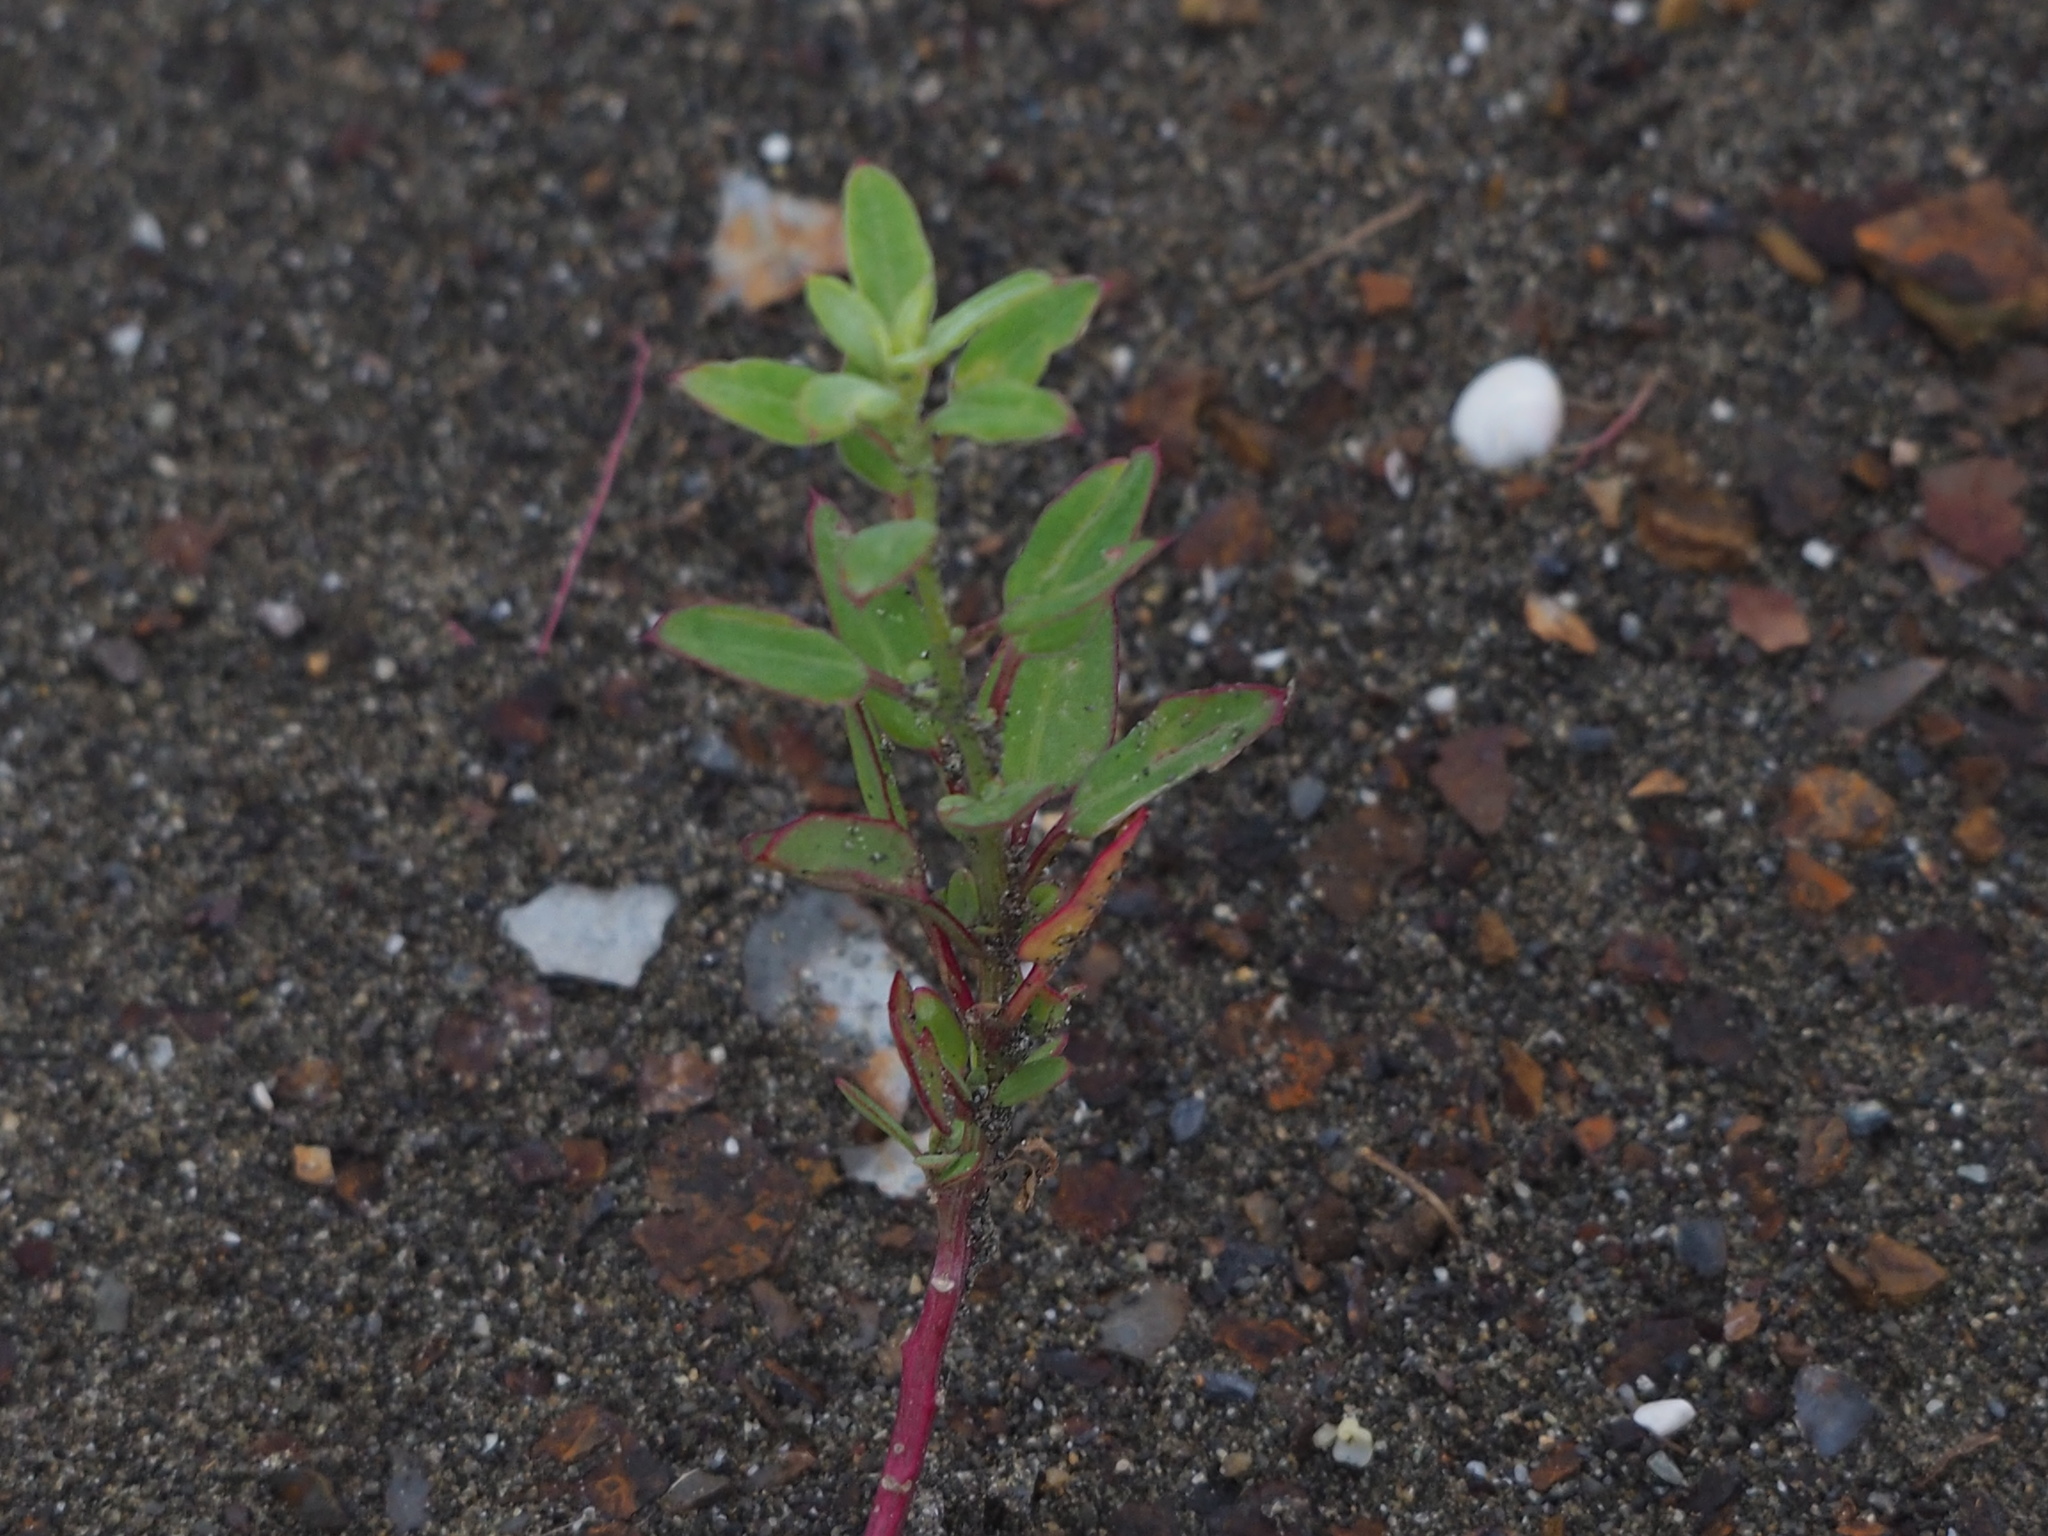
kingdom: Plantae
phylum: Tracheophyta
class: Magnoliopsida
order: Caryophyllales
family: Amaranthaceae
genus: Chenopodium
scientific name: Chenopodium acuminatum
